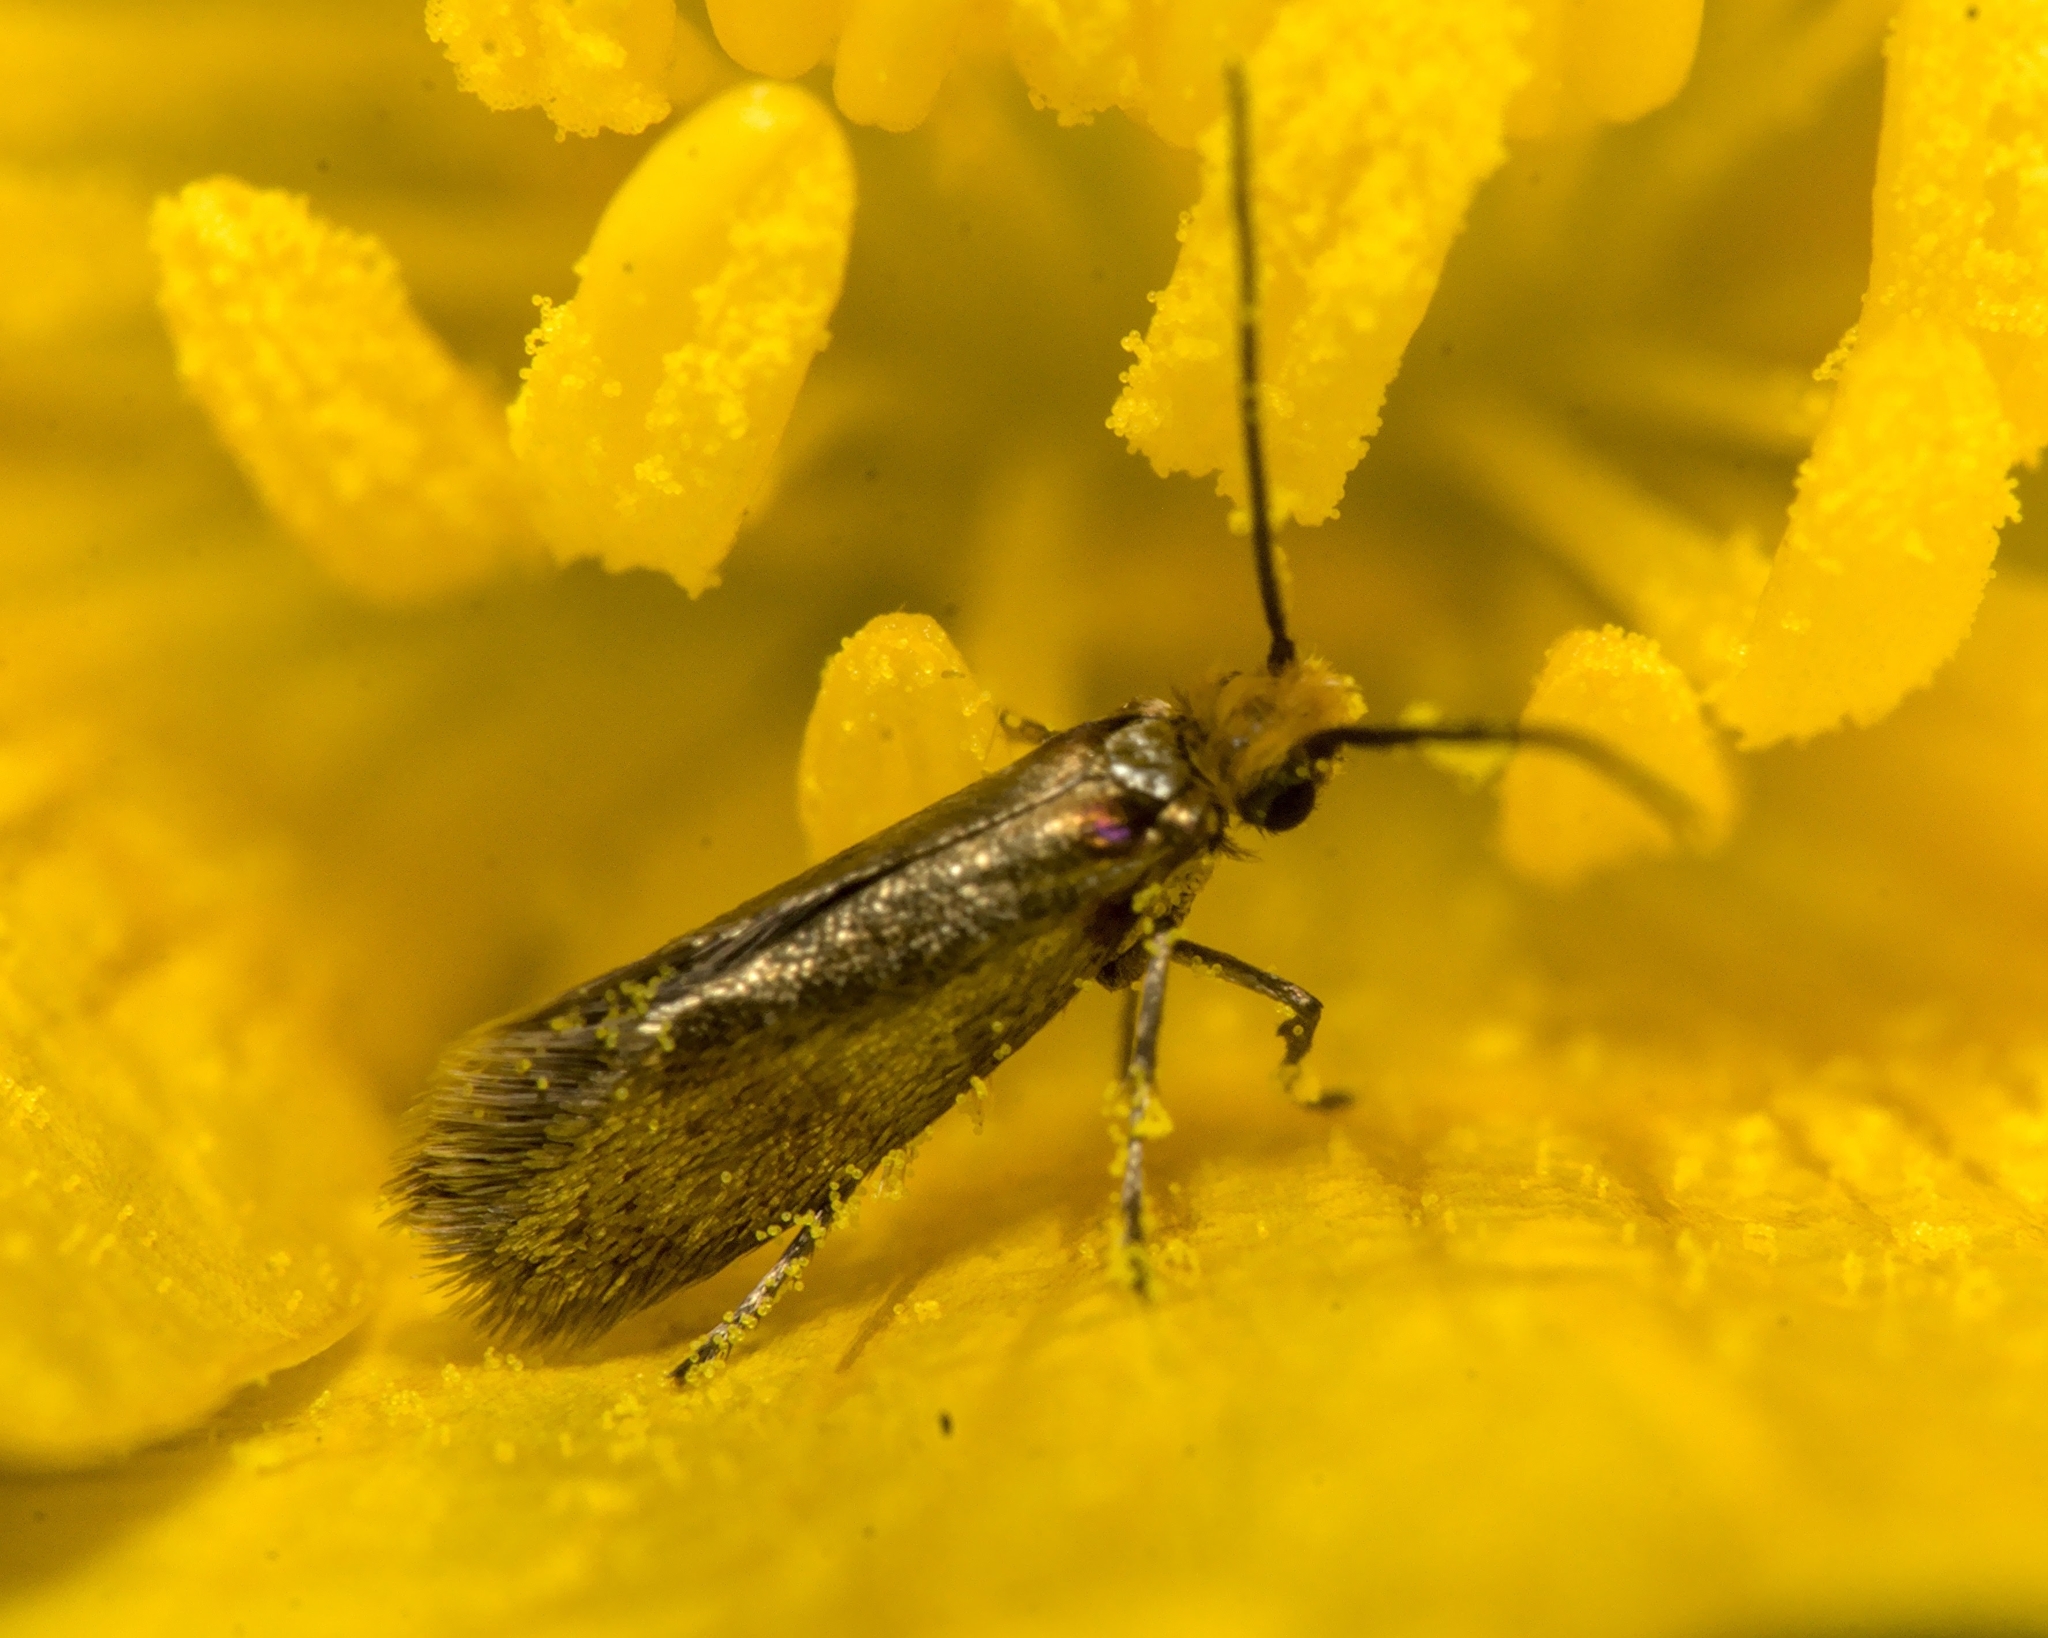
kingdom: Animalia
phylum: Arthropoda
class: Insecta
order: Lepidoptera
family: Micropterigidae
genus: Micropterix
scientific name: Micropterix calthella
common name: Plain gold
